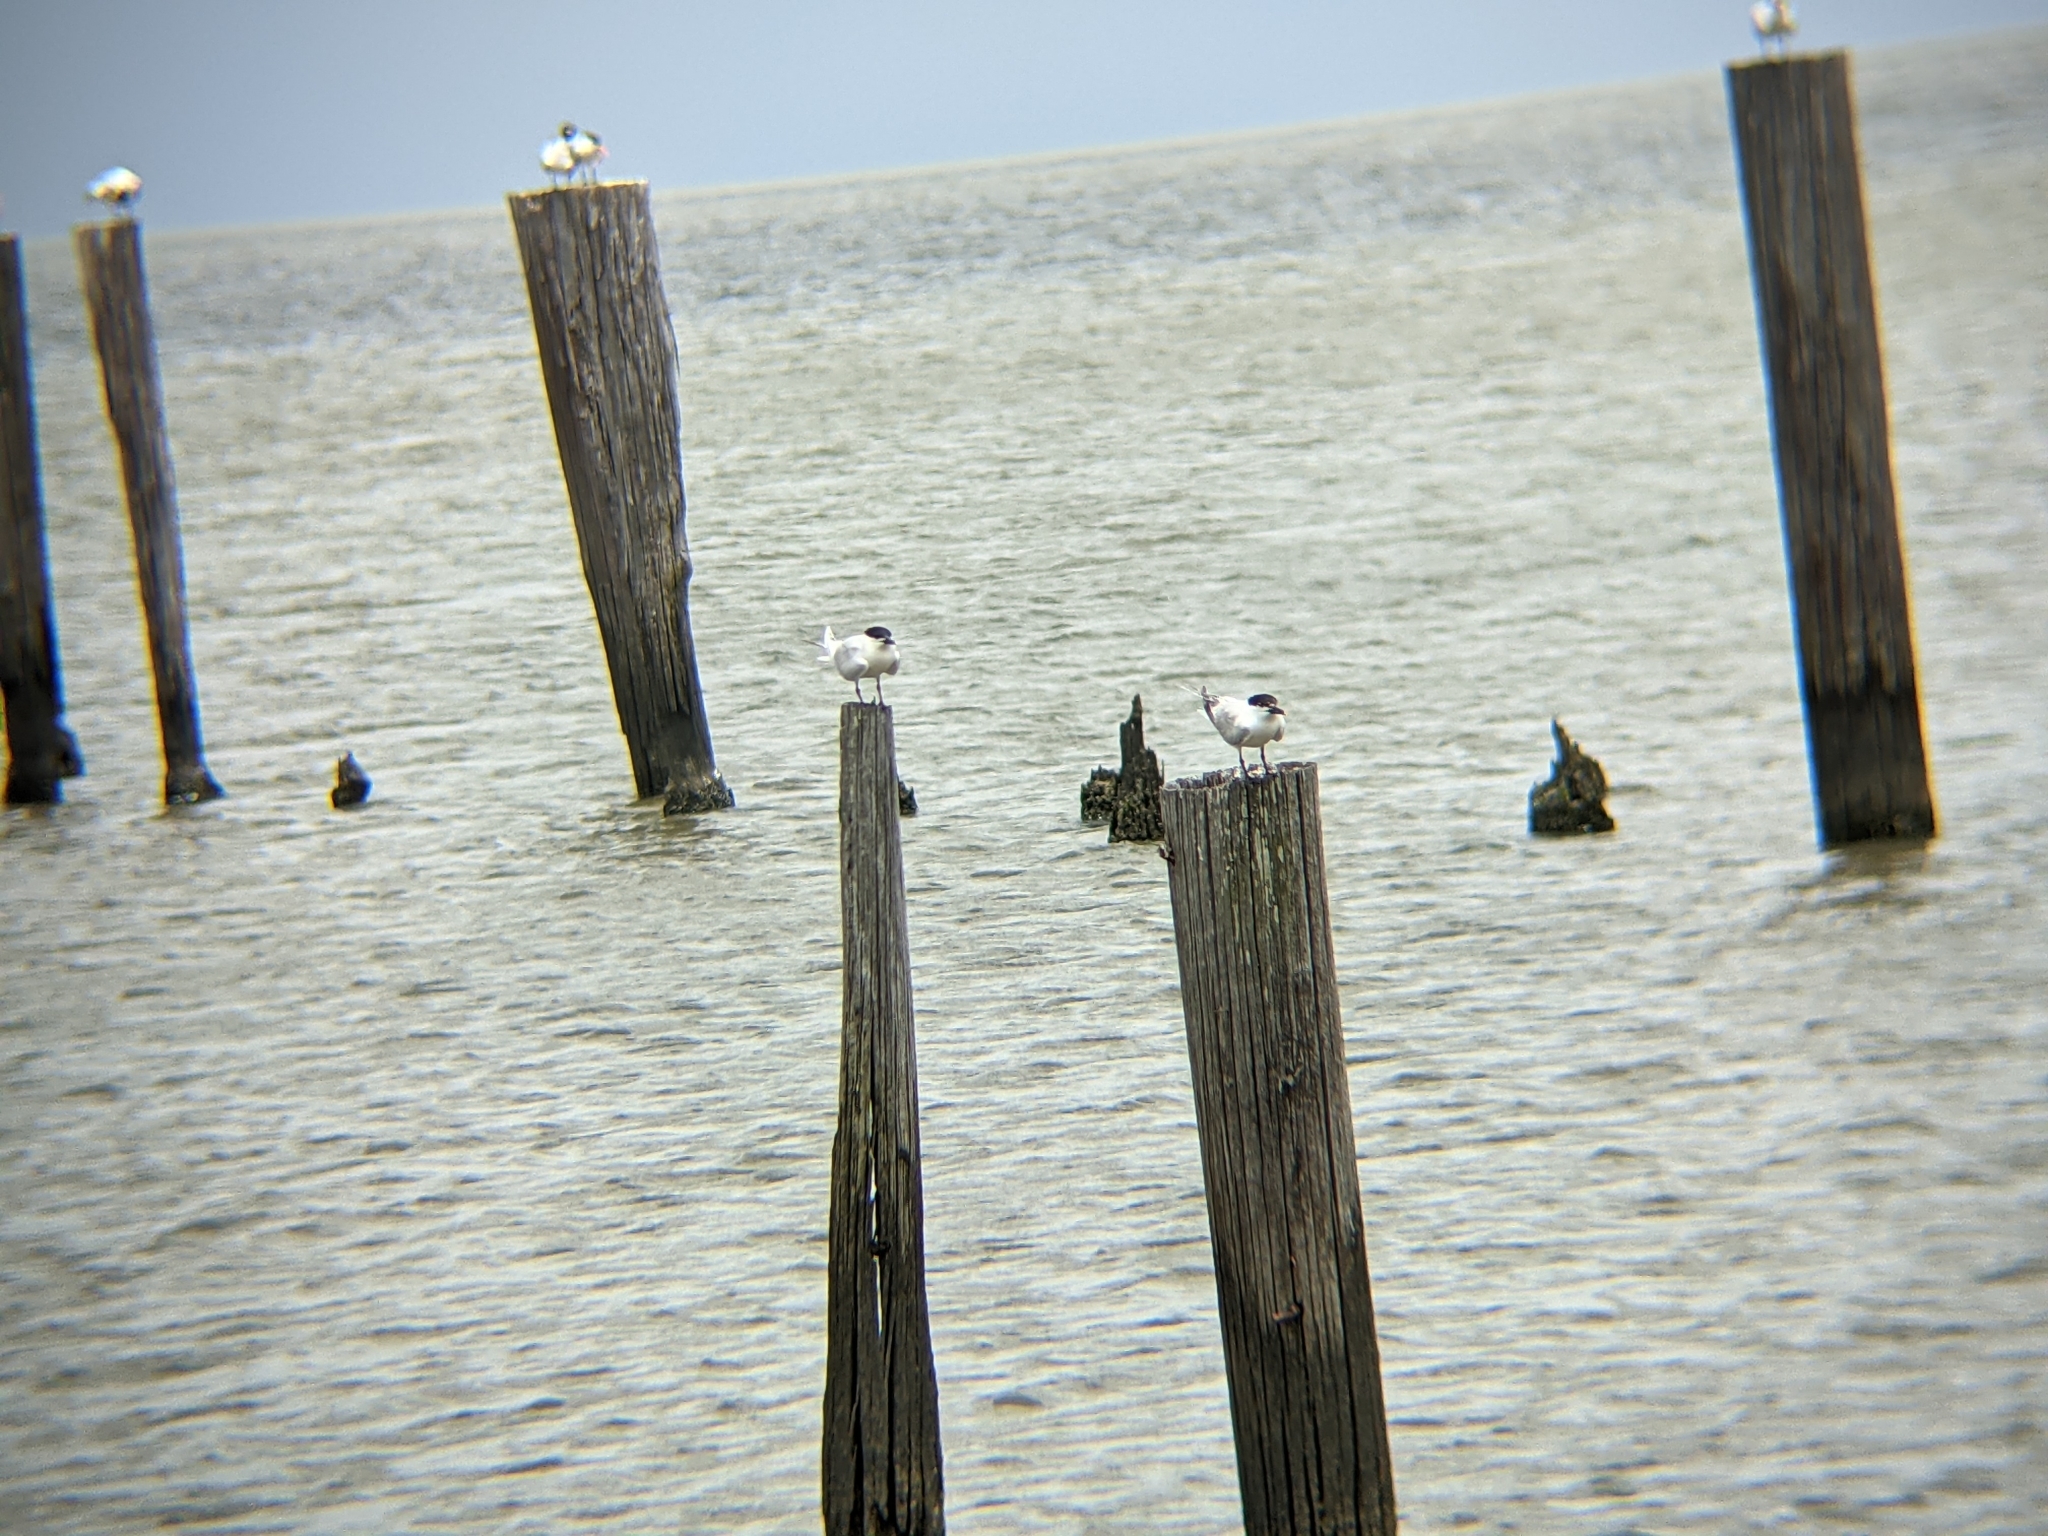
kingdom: Animalia
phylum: Chordata
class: Aves
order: Charadriiformes
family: Laridae
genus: Thalasseus
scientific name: Thalasseus sandvicensis
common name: Sandwich tern
